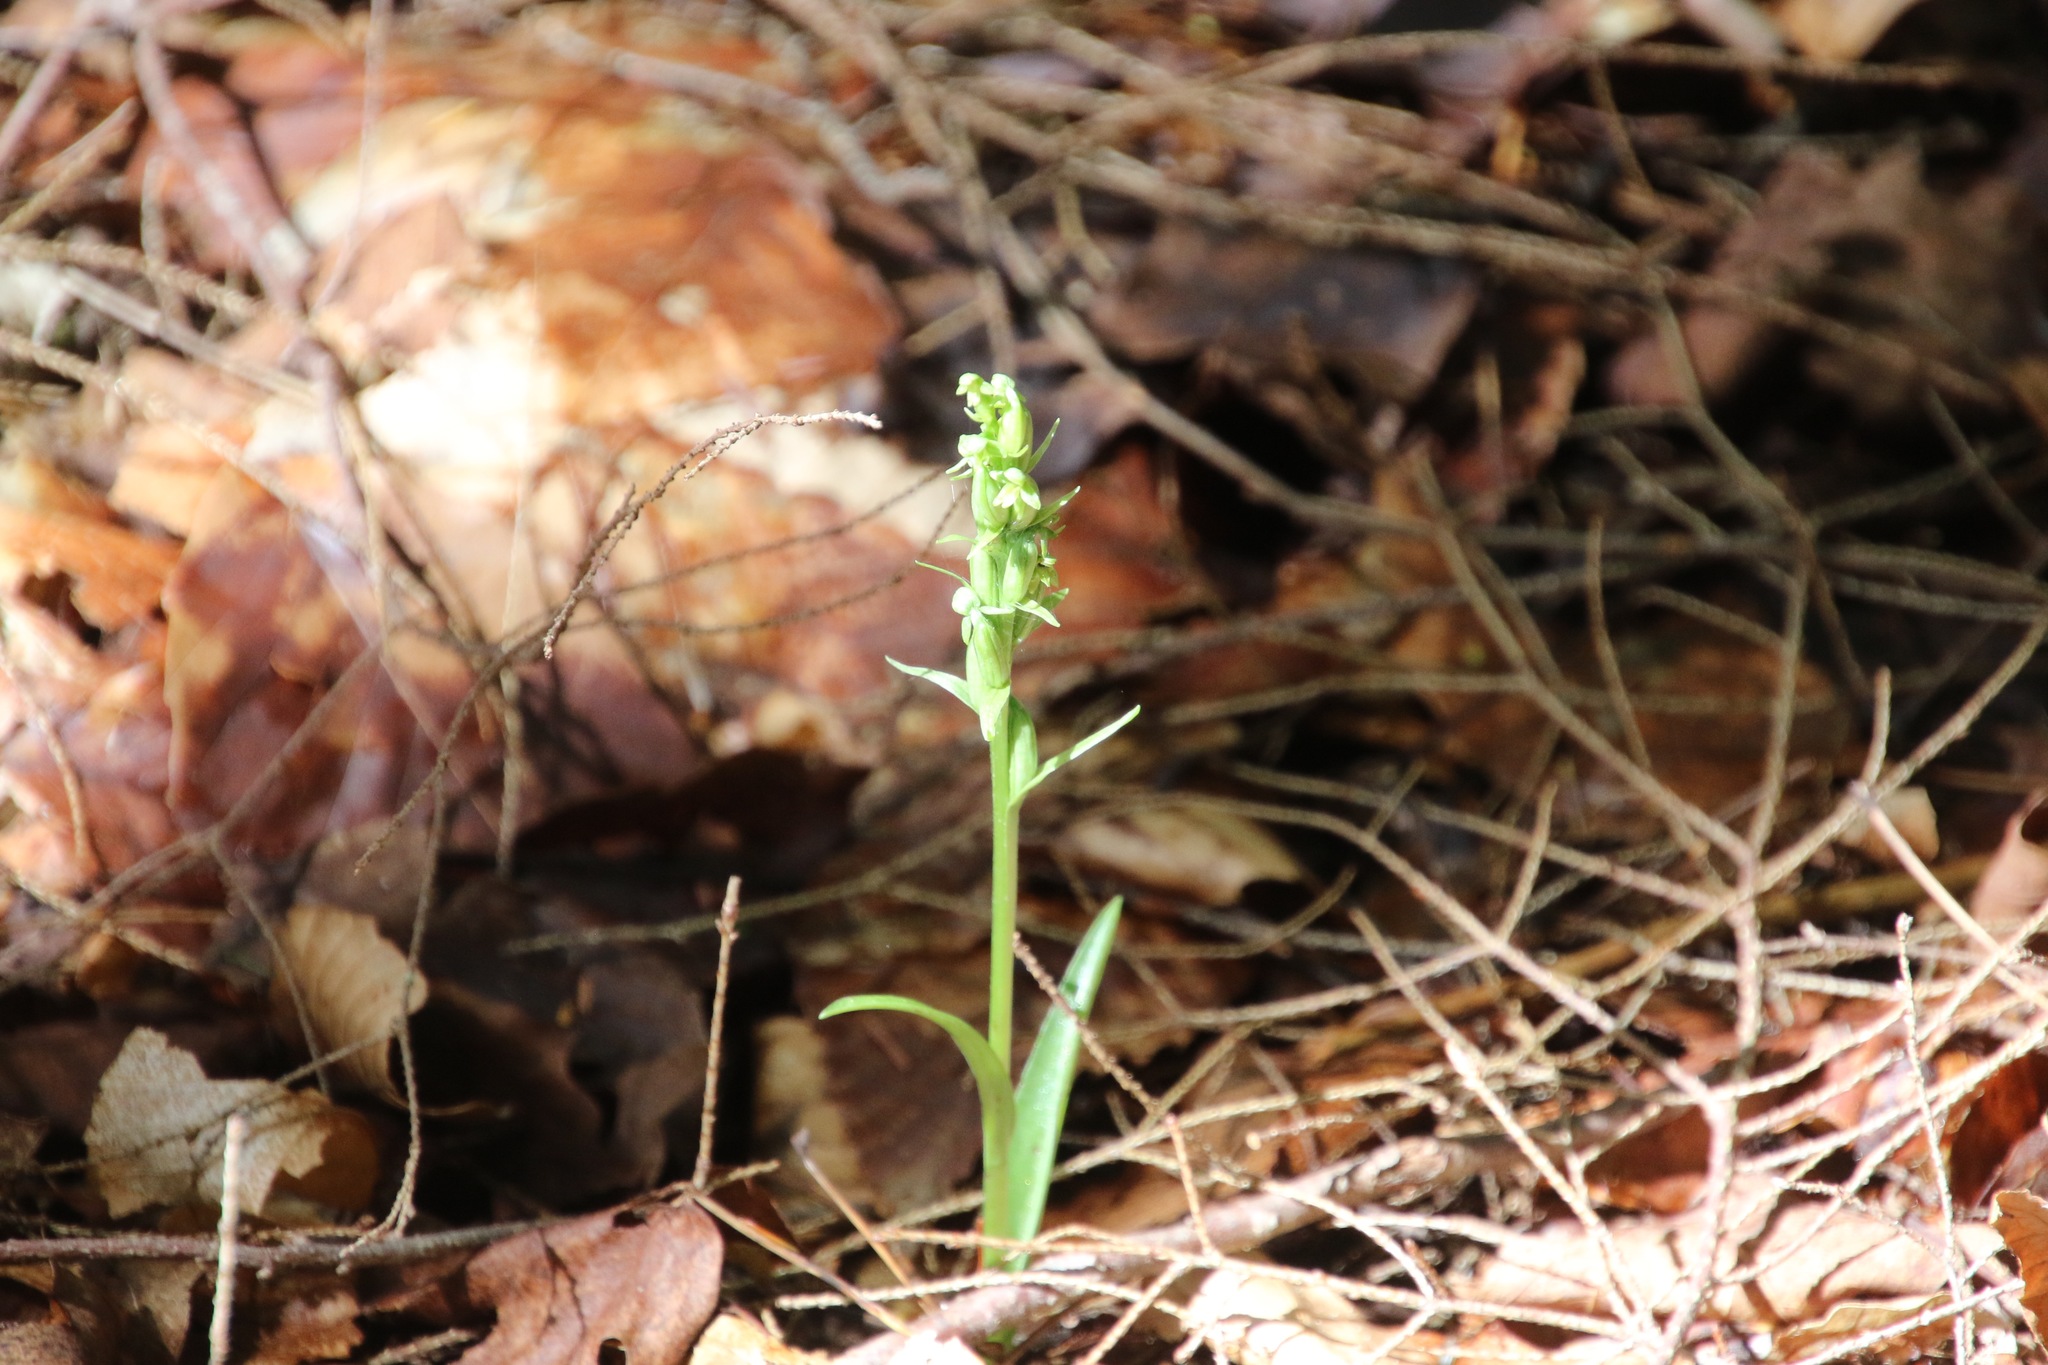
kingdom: Plantae
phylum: Tracheophyta
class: Liliopsida
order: Asparagales
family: Orchidaceae
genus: Platanthera
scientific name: Platanthera aquilonis
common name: Northern green orchid
